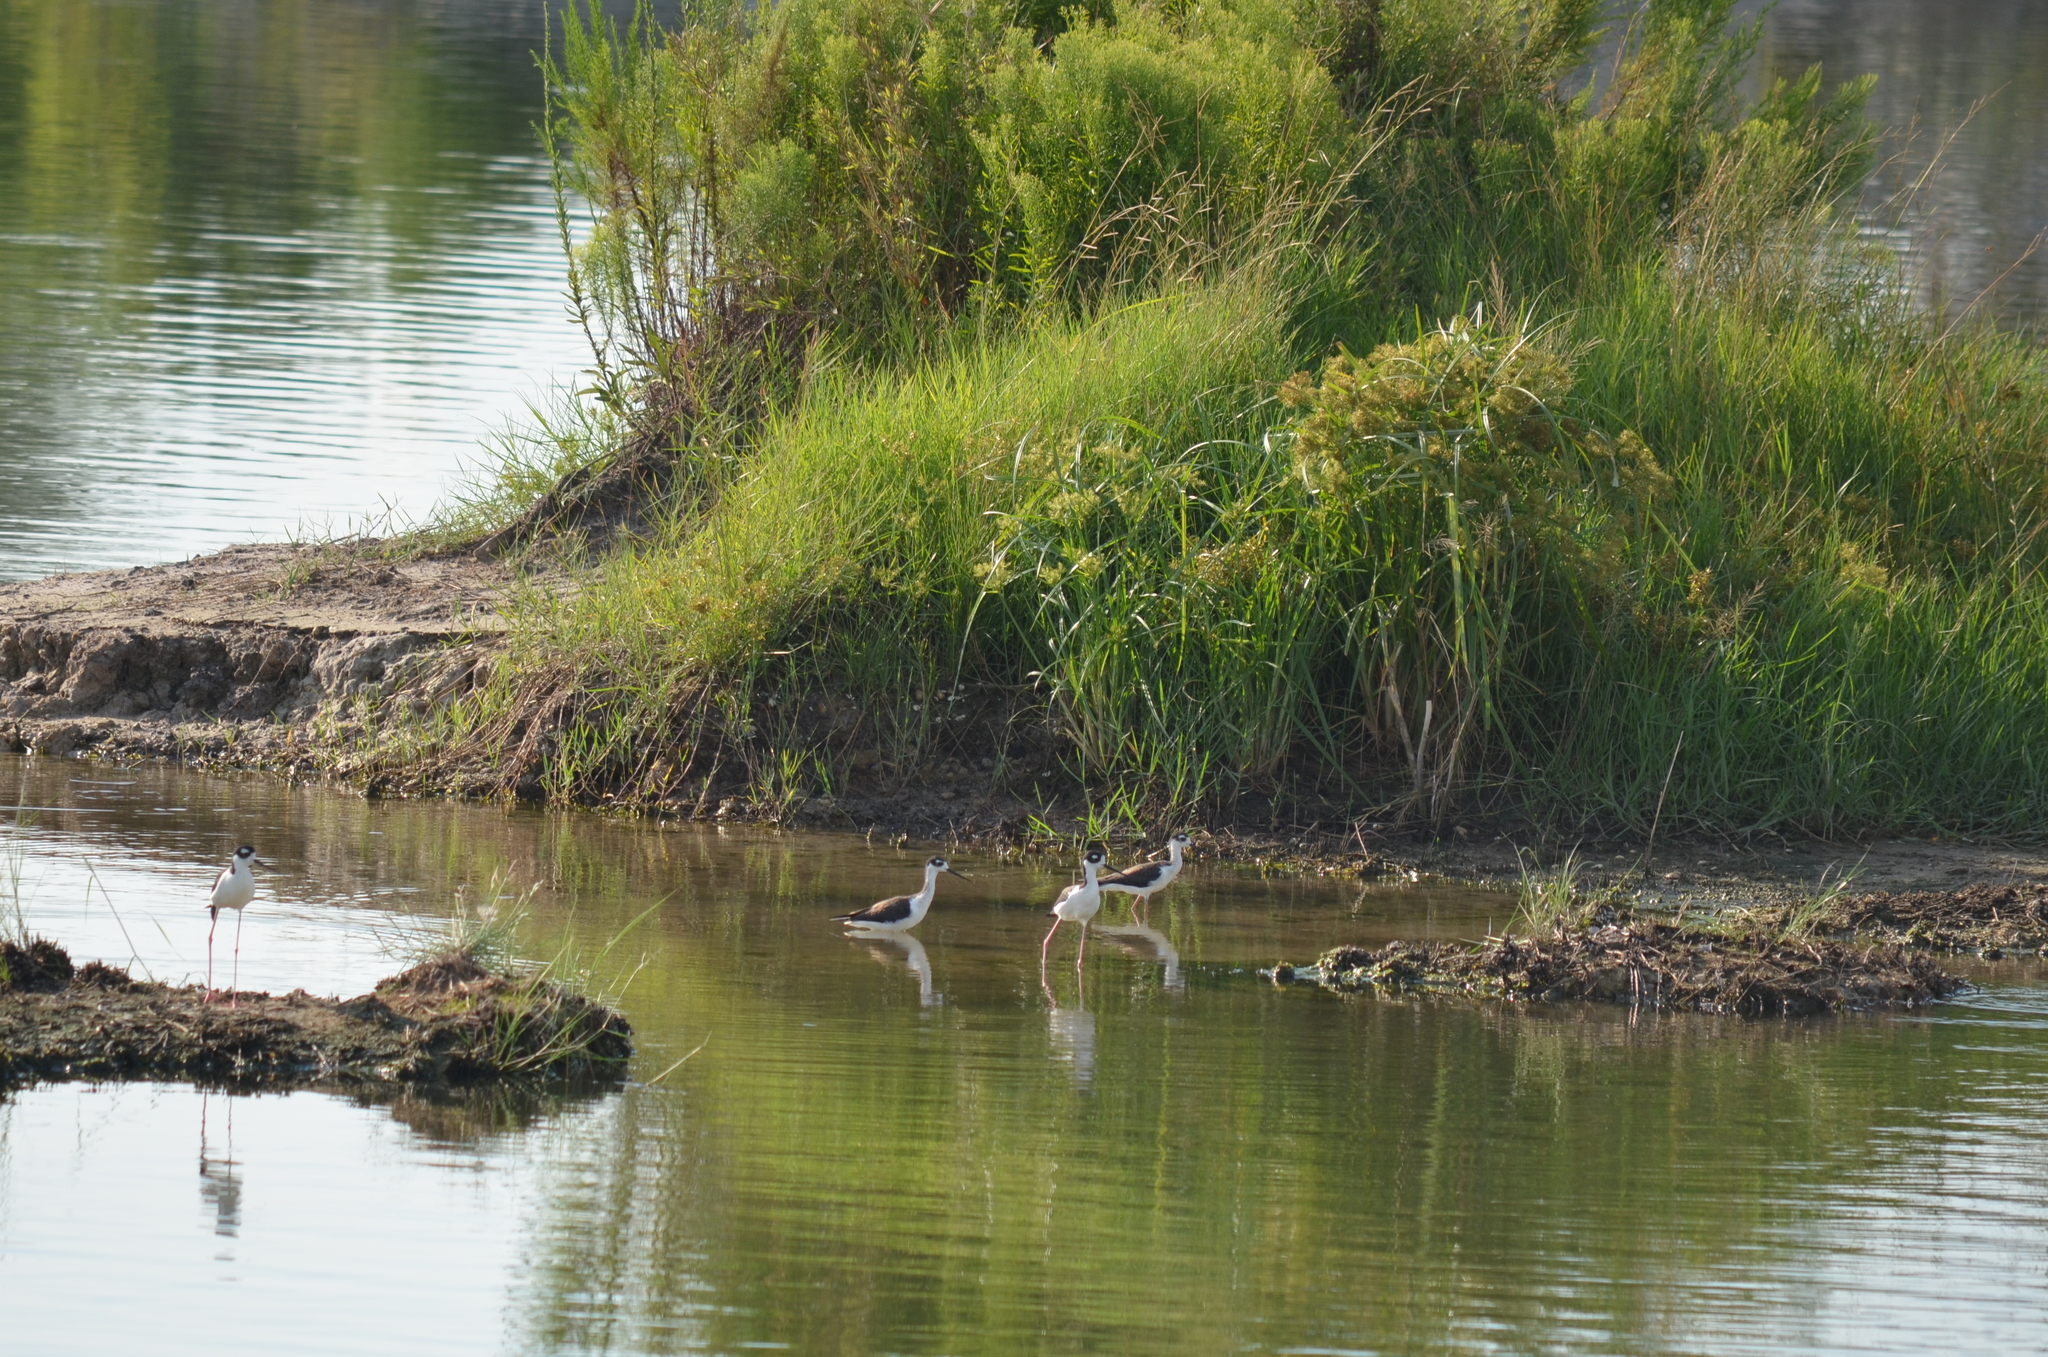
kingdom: Animalia
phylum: Chordata
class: Aves
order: Charadriiformes
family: Recurvirostridae
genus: Himantopus
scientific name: Himantopus mexicanus
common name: Black-necked stilt
